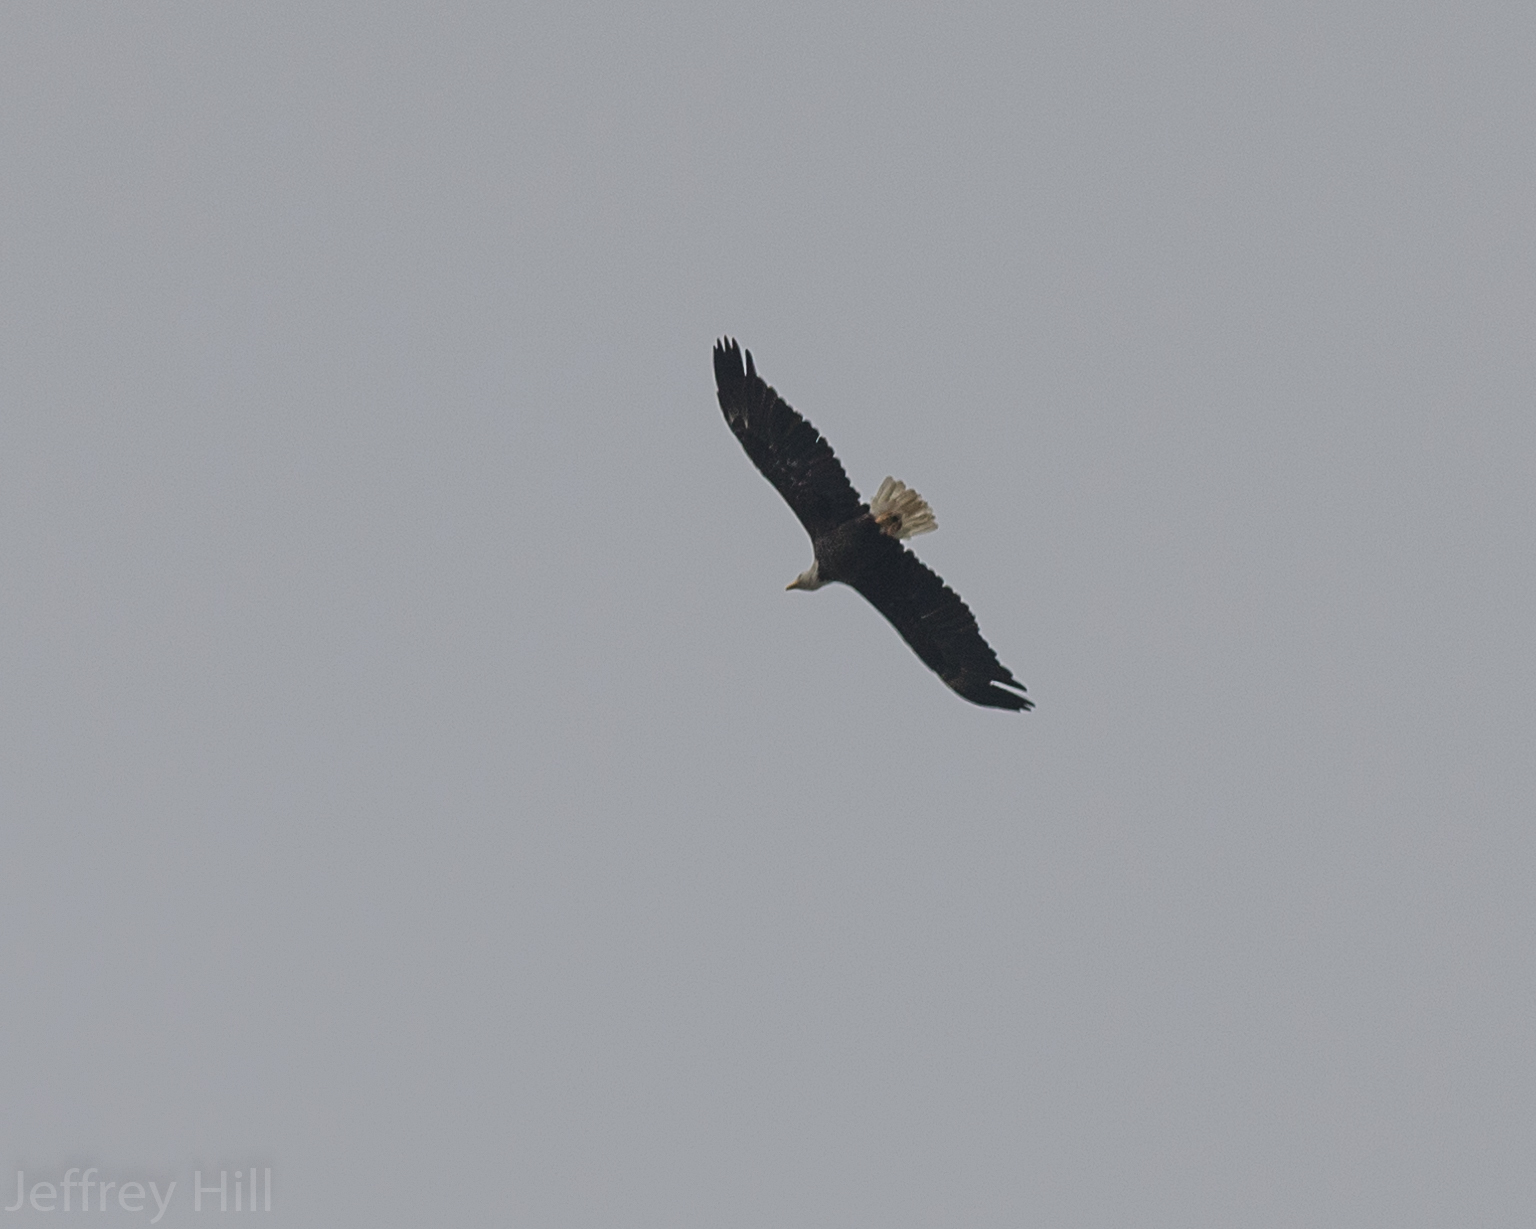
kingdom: Animalia
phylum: Chordata
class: Aves
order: Accipitriformes
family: Accipitridae
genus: Haliaeetus
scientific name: Haliaeetus leucocephalus
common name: Bald eagle
